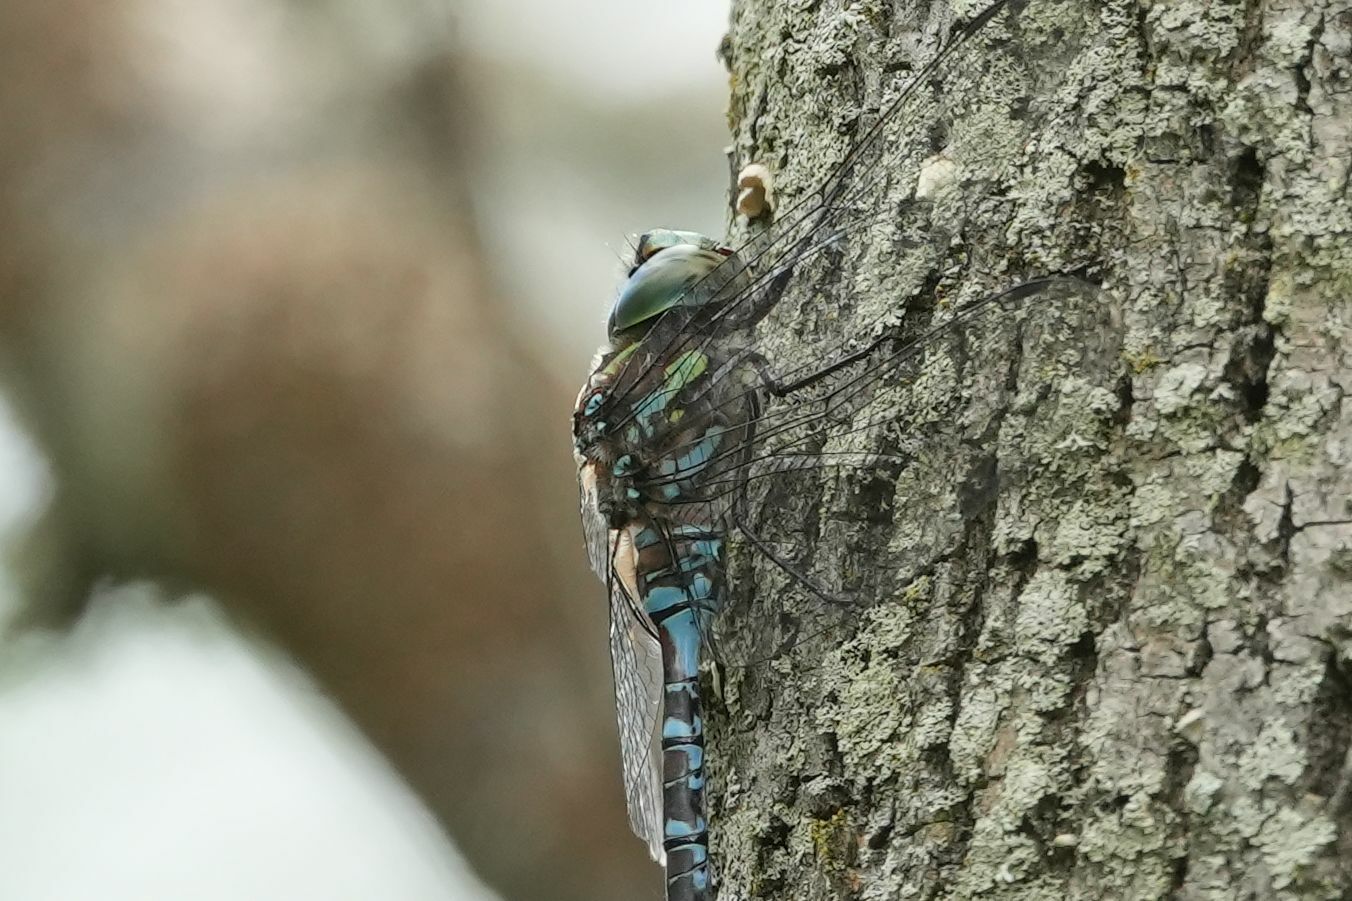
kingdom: Animalia
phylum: Arthropoda
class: Insecta
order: Odonata
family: Aeshnidae
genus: Aeshna
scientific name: Aeshna canadensis
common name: Canada darner
